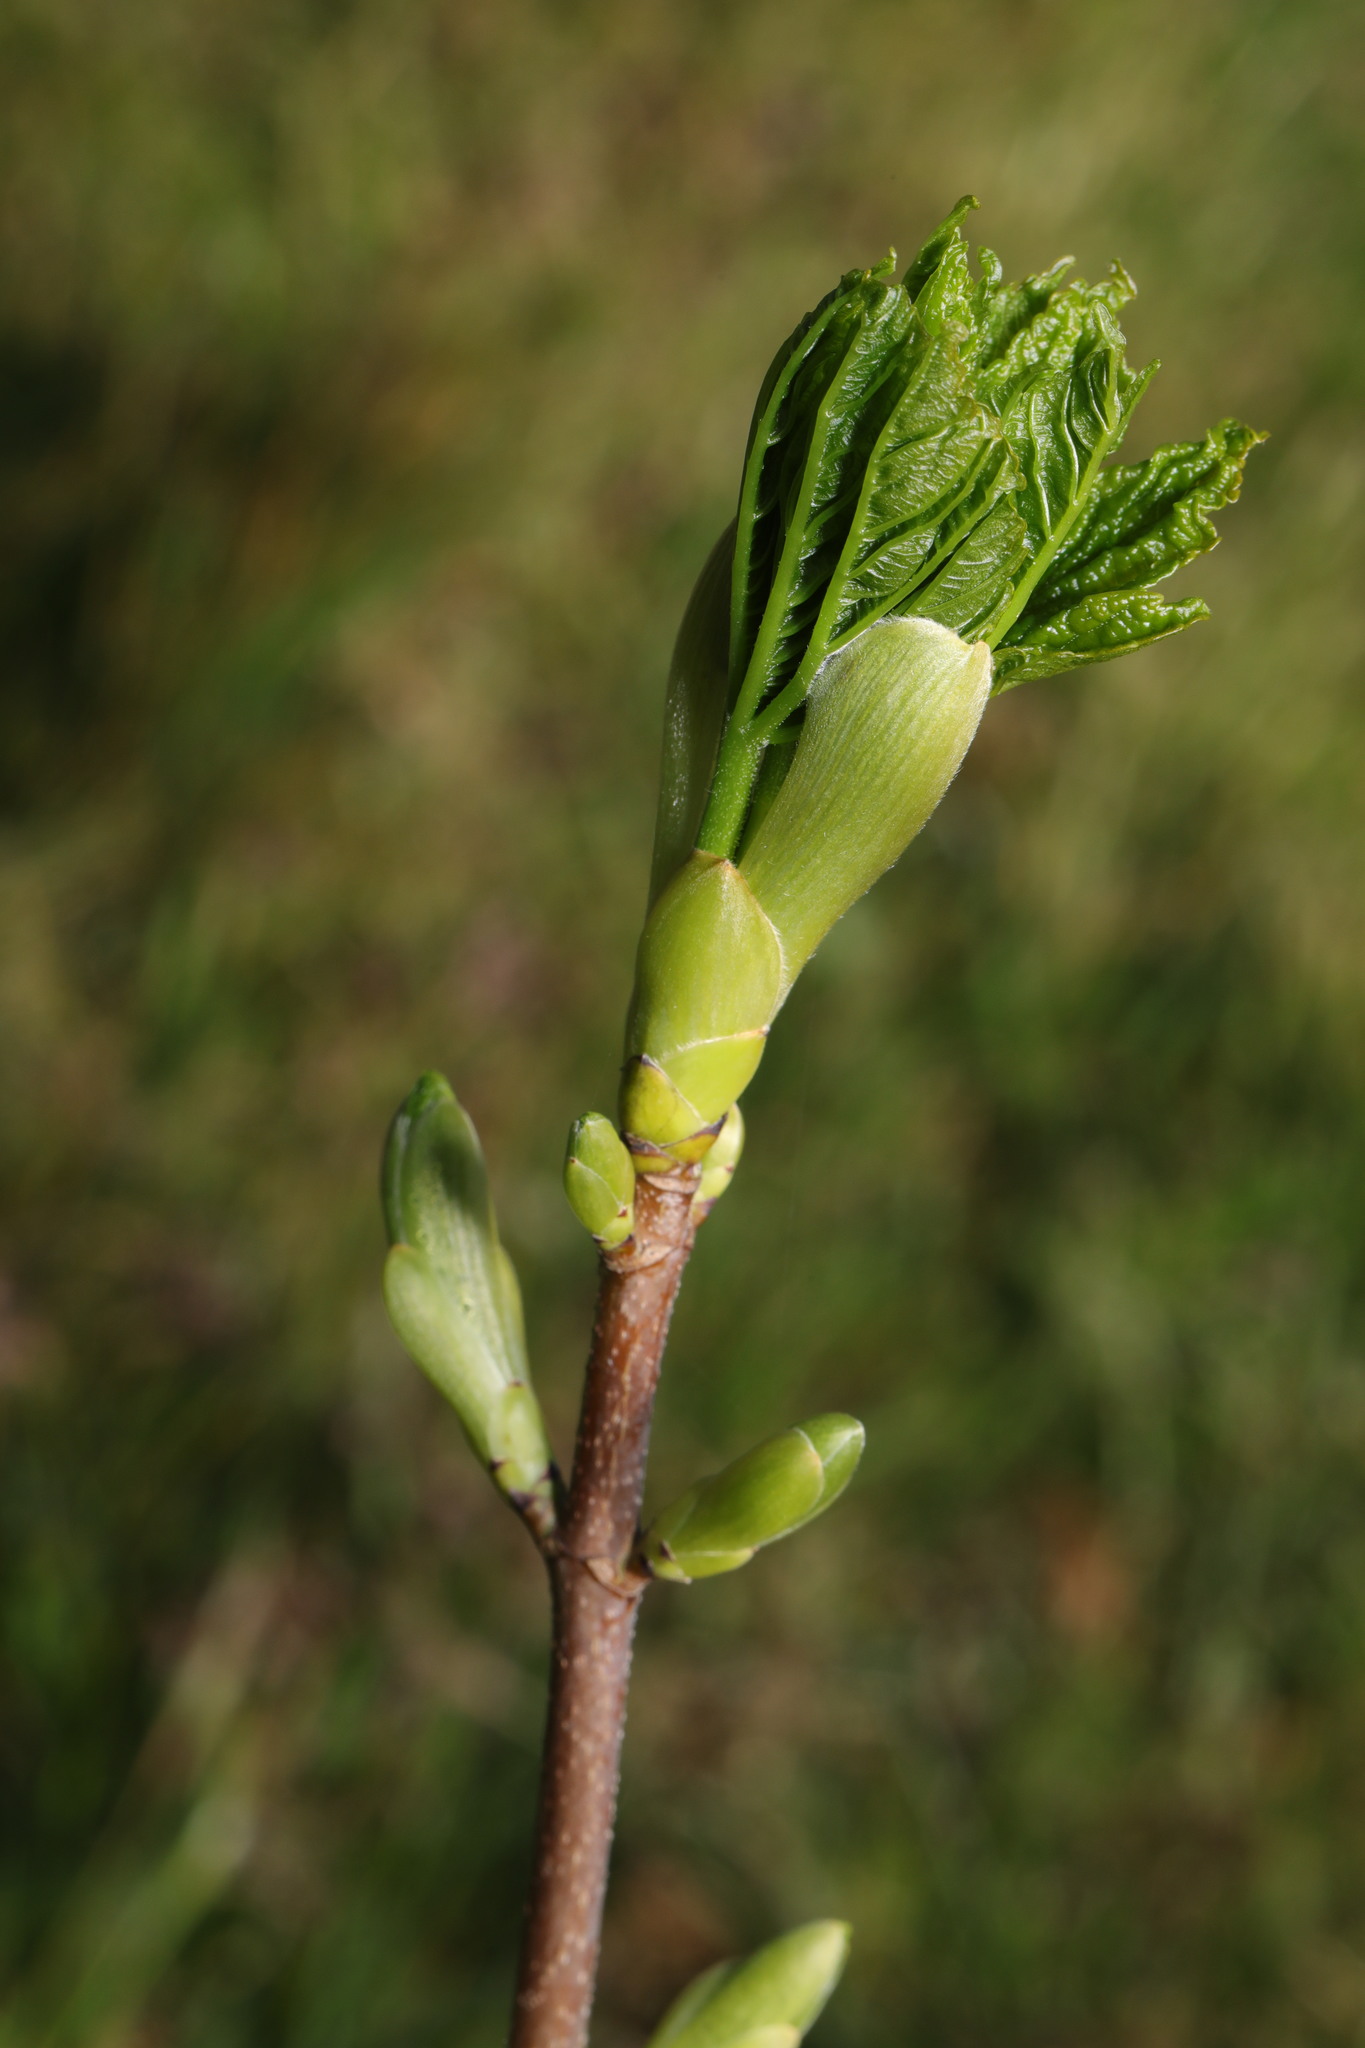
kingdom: Plantae
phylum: Tracheophyta
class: Magnoliopsida
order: Sapindales
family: Sapindaceae
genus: Acer
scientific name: Acer pseudoplatanus
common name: Sycamore
